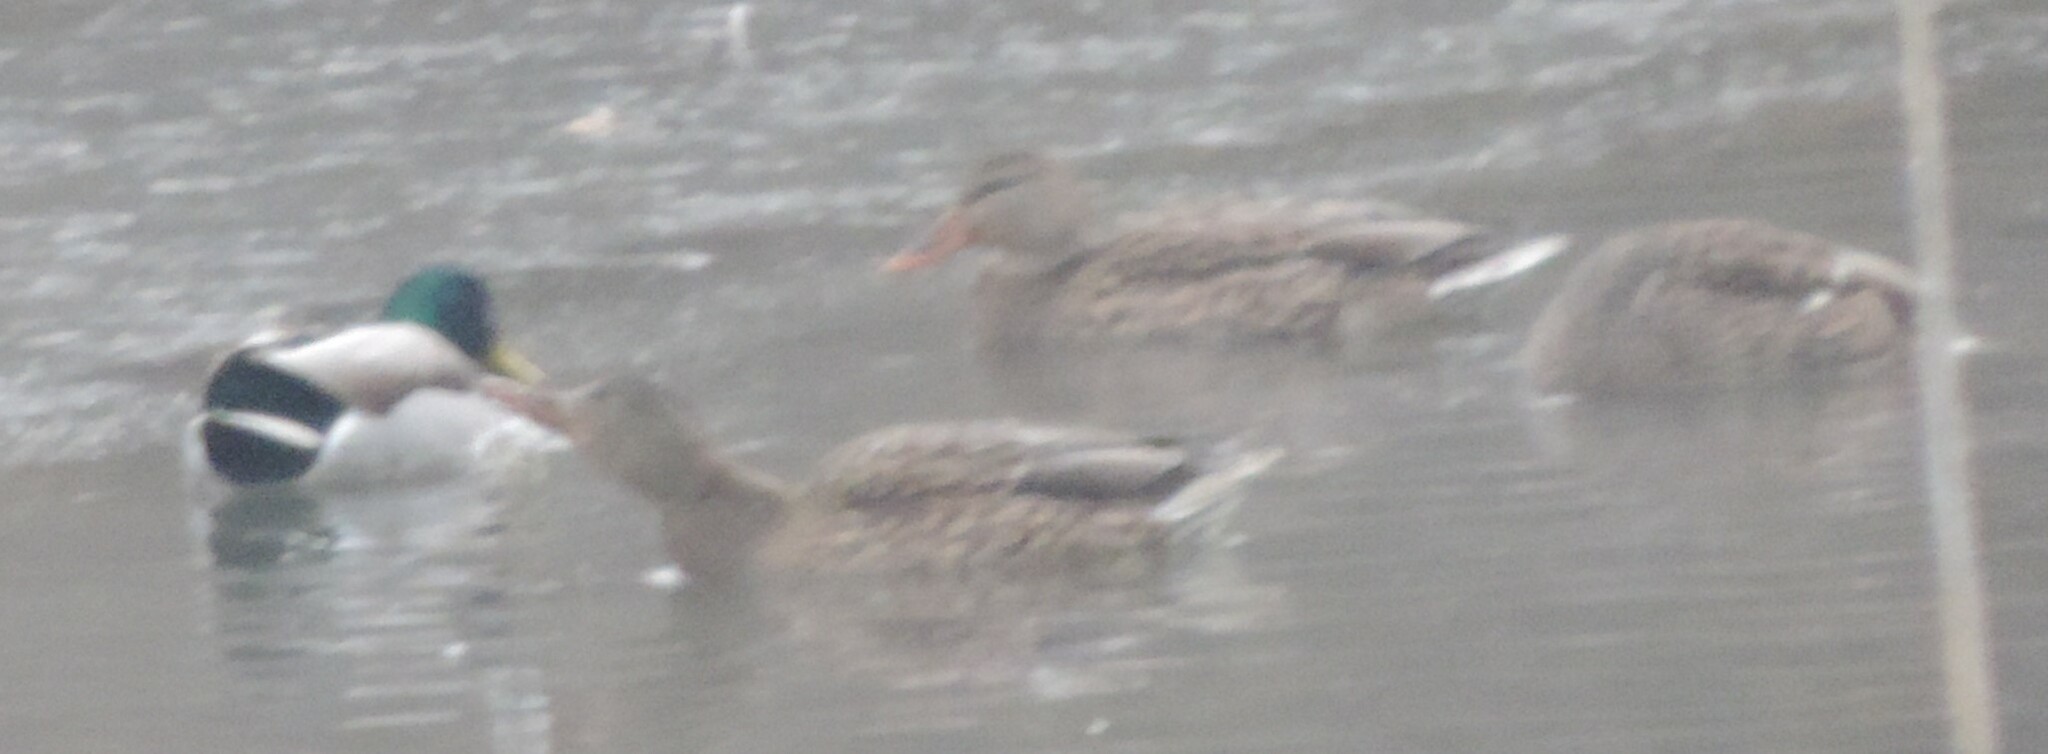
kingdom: Animalia
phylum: Chordata
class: Aves
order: Anseriformes
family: Anatidae
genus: Anas
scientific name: Anas platyrhynchos
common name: Mallard
